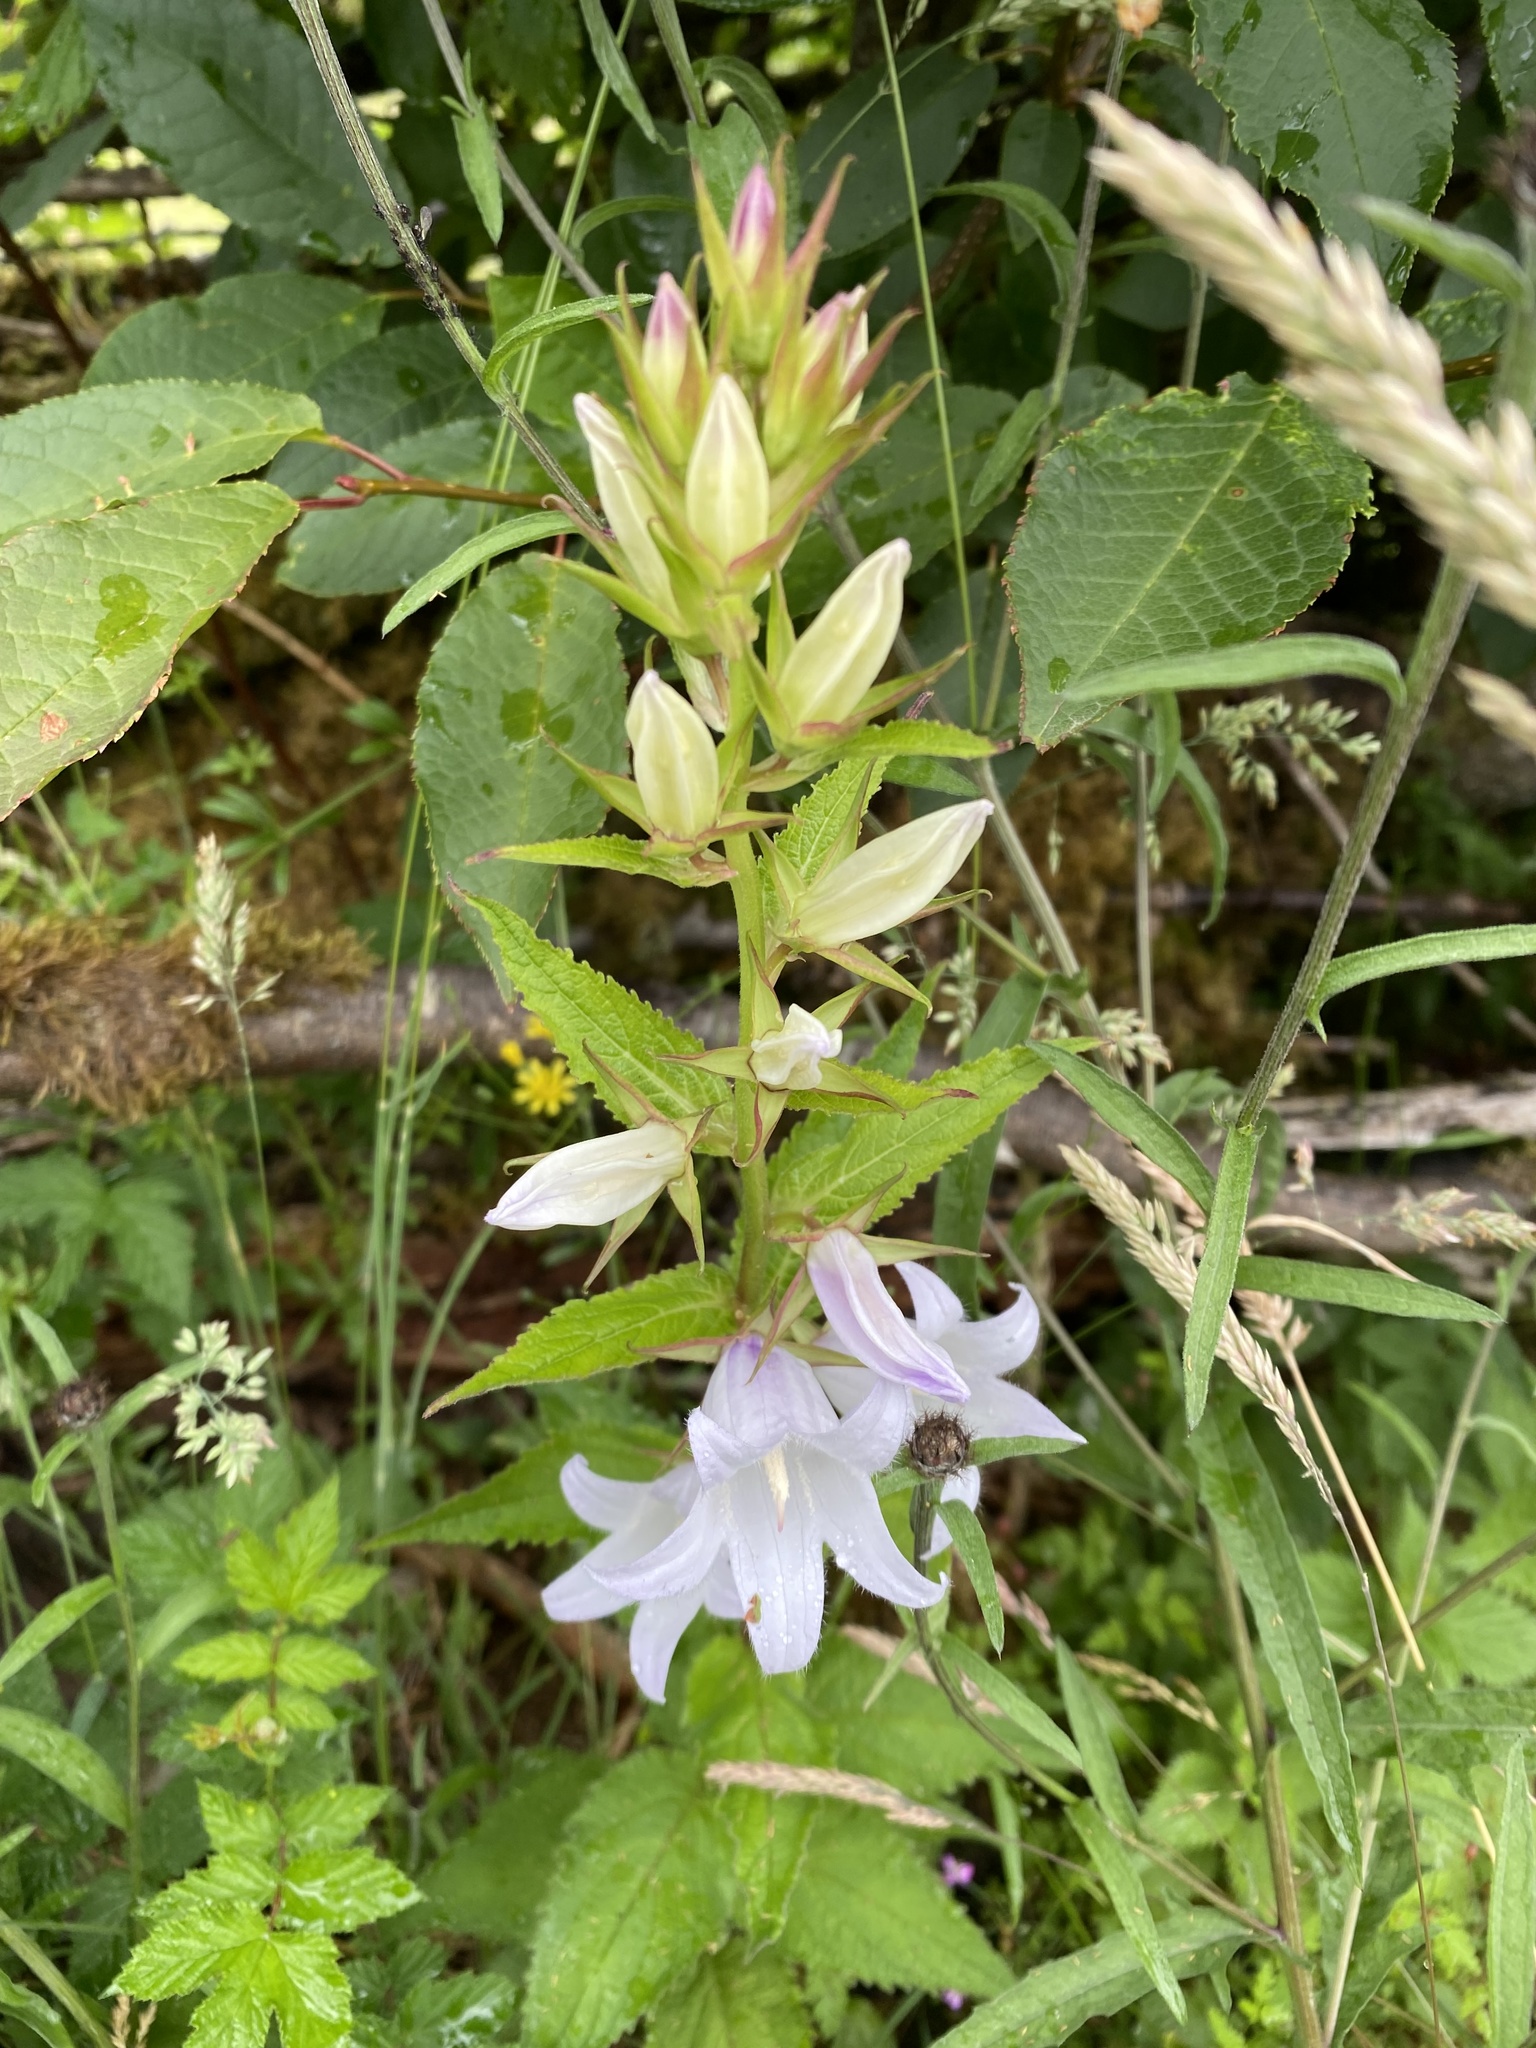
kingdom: Plantae
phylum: Tracheophyta
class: Magnoliopsida
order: Asterales
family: Campanulaceae
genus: Campanula
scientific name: Campanula latifolia
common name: Giant bellflower
